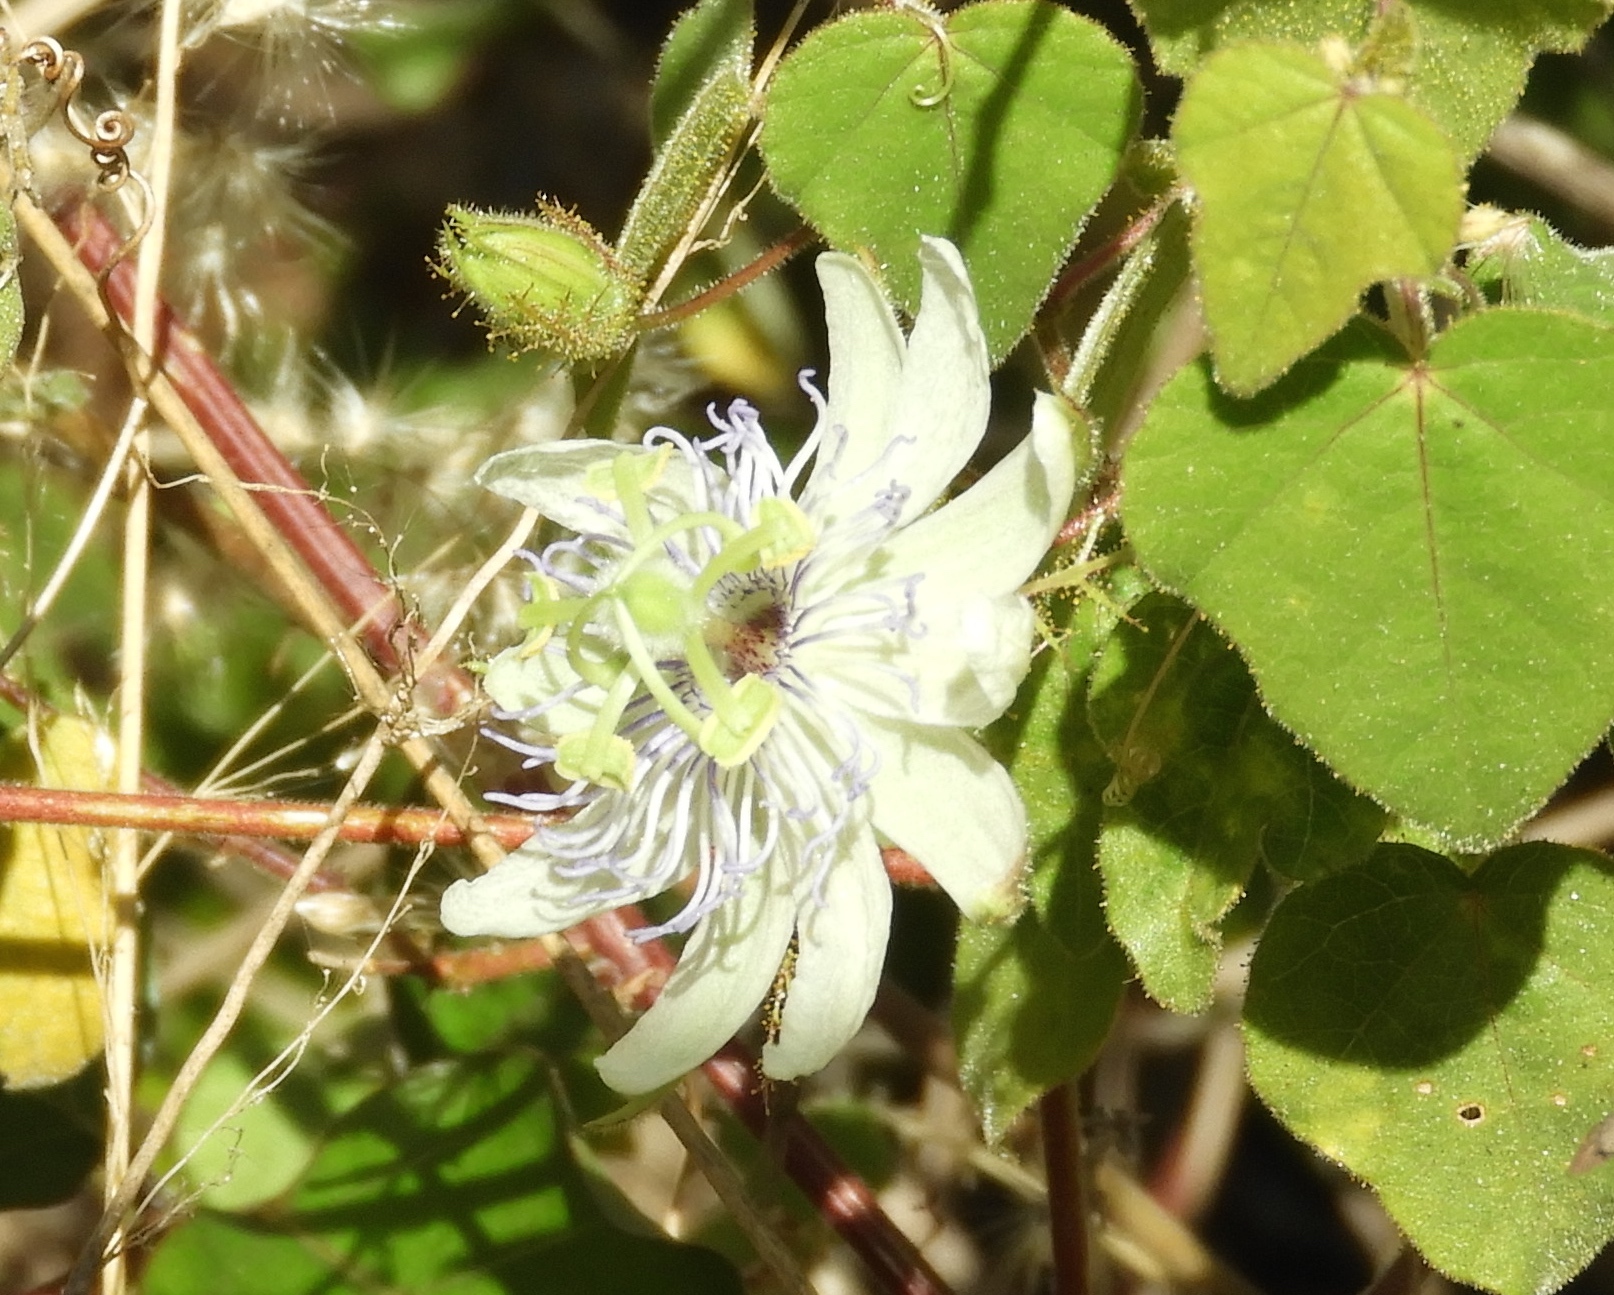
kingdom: Plantae
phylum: Tracheophyta
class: Magnoliopsida
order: Malpighiales
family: Passifloraceae
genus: Passiflora
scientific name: Passiflora foetida
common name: Fetid passionflower
